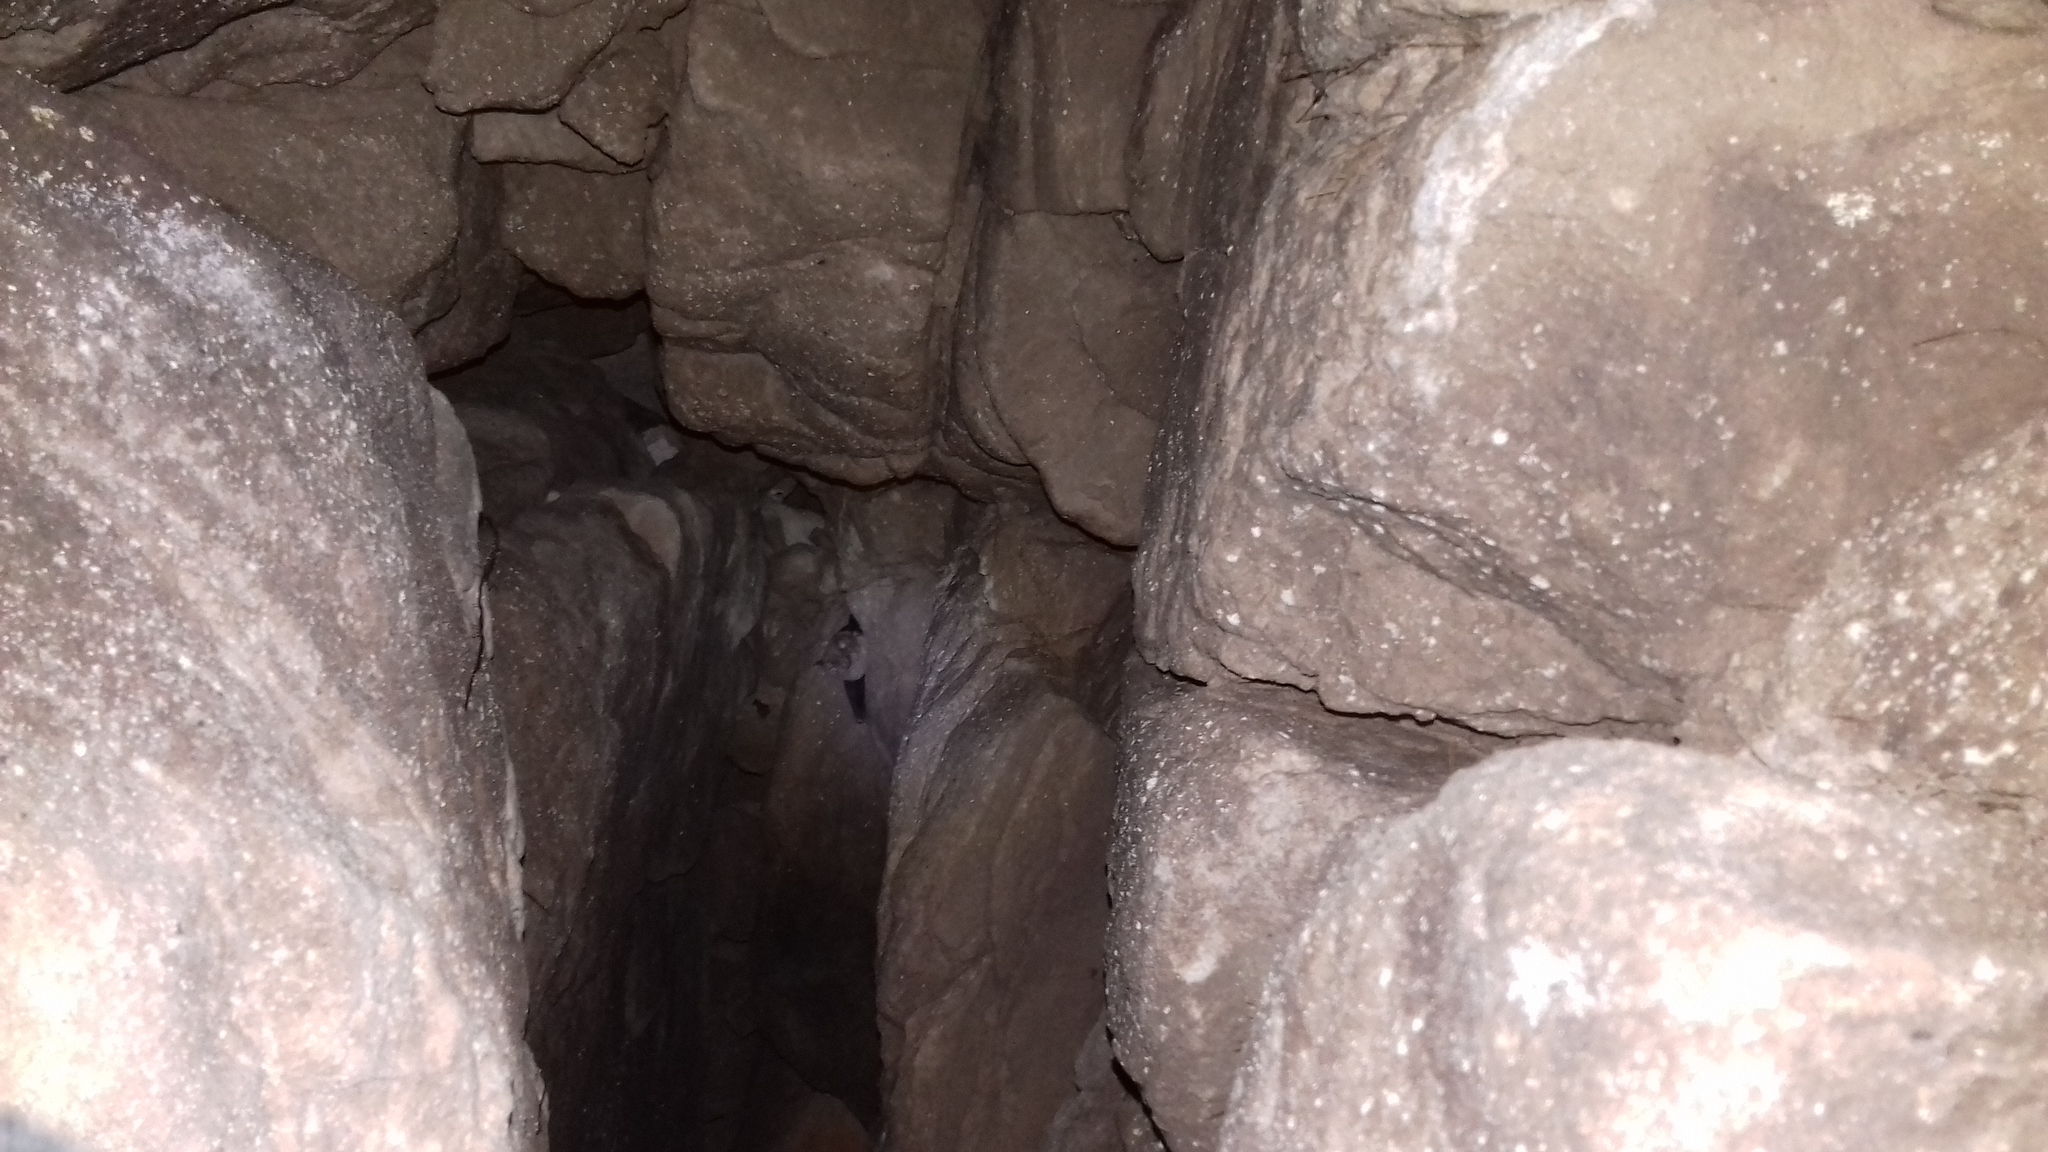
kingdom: Animalia
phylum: Chordata
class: Mammalia
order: Chiroptera
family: Rhinolophidae
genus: Rhinolophus
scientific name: Rhinolophus
